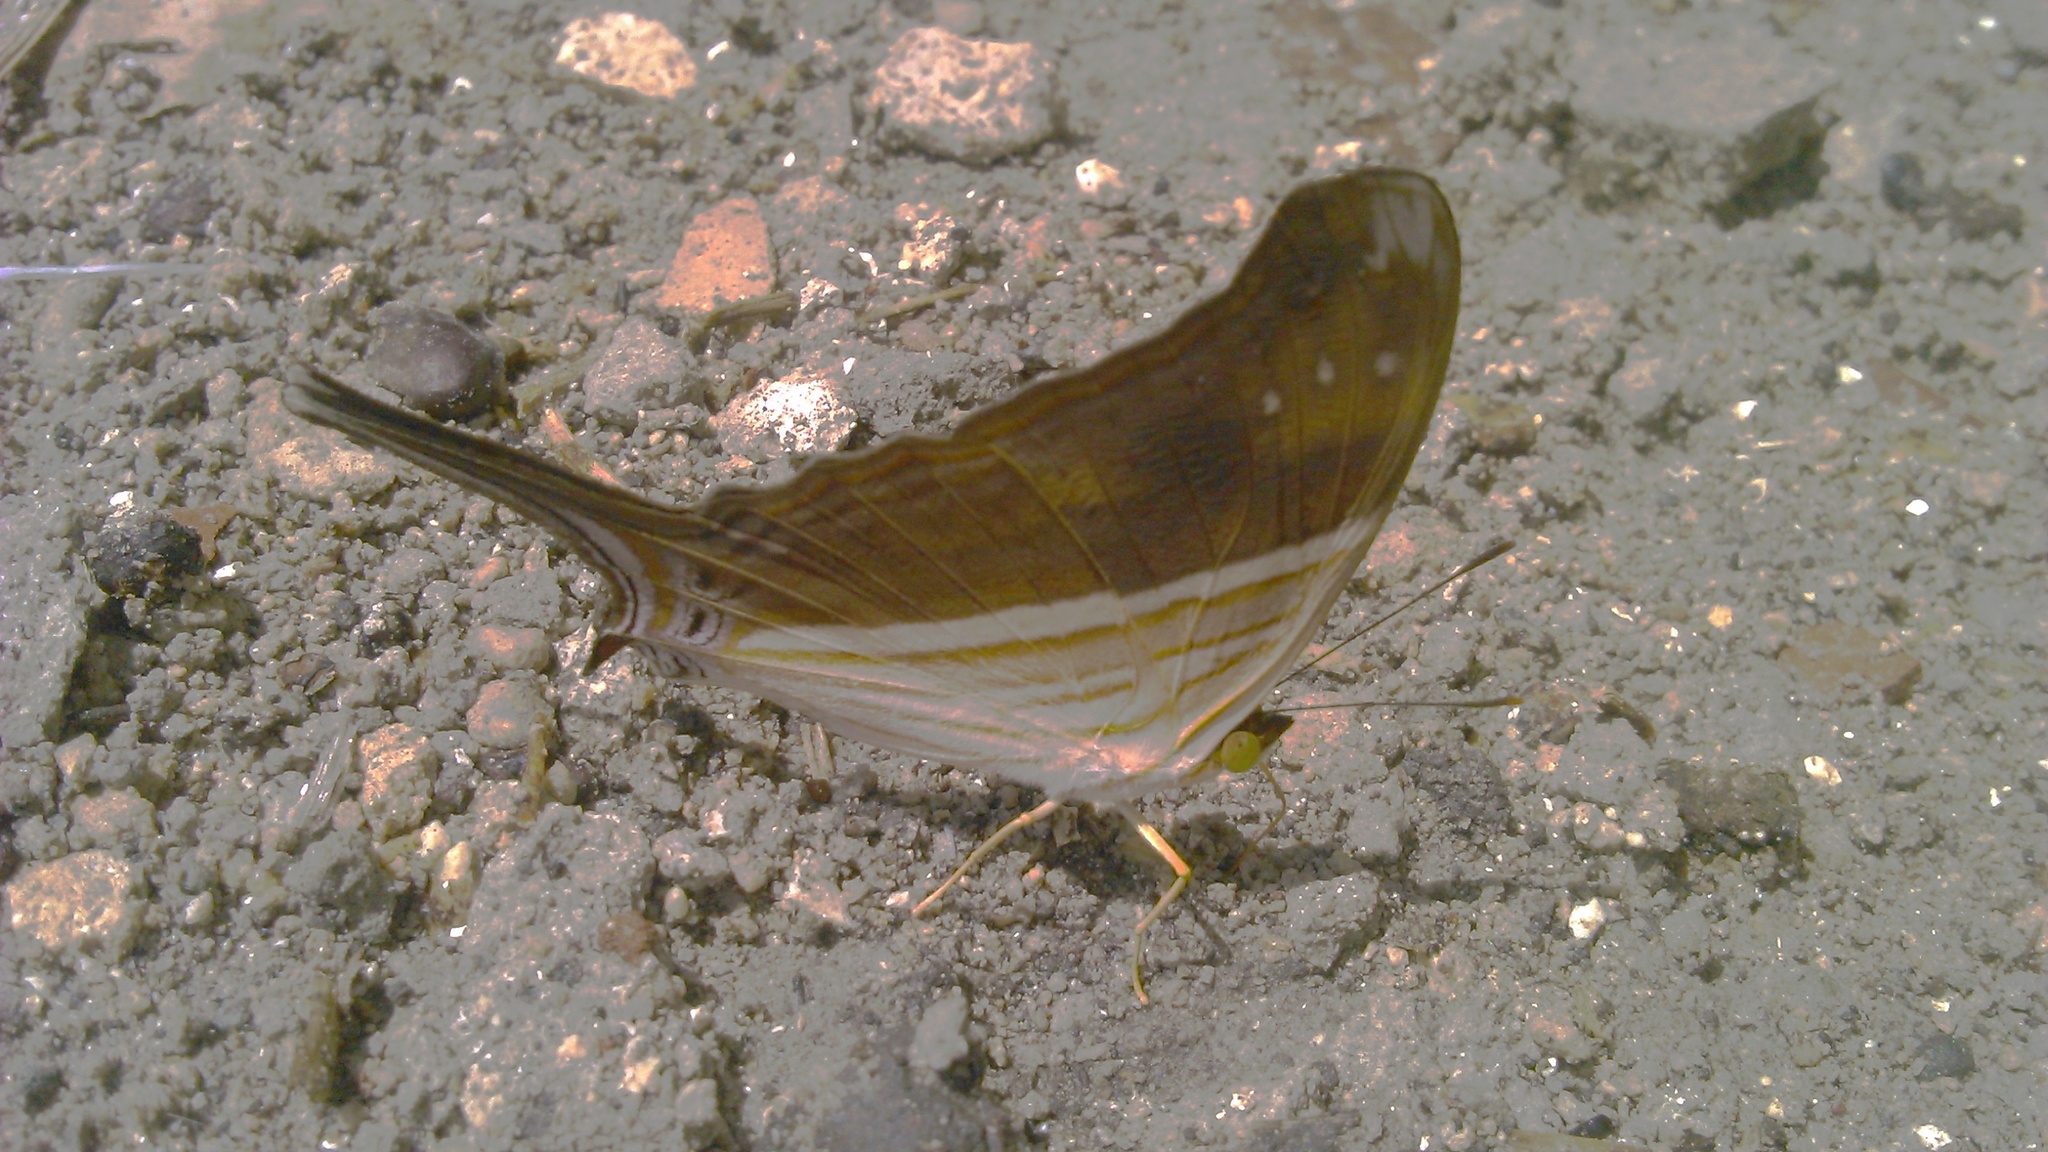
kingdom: Animalia
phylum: Arthropoda
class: Insecta
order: Lepidoptera
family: Nymphalidae
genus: Marpesia
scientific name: Marpesia chiron
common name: Many-banded daggerwing
